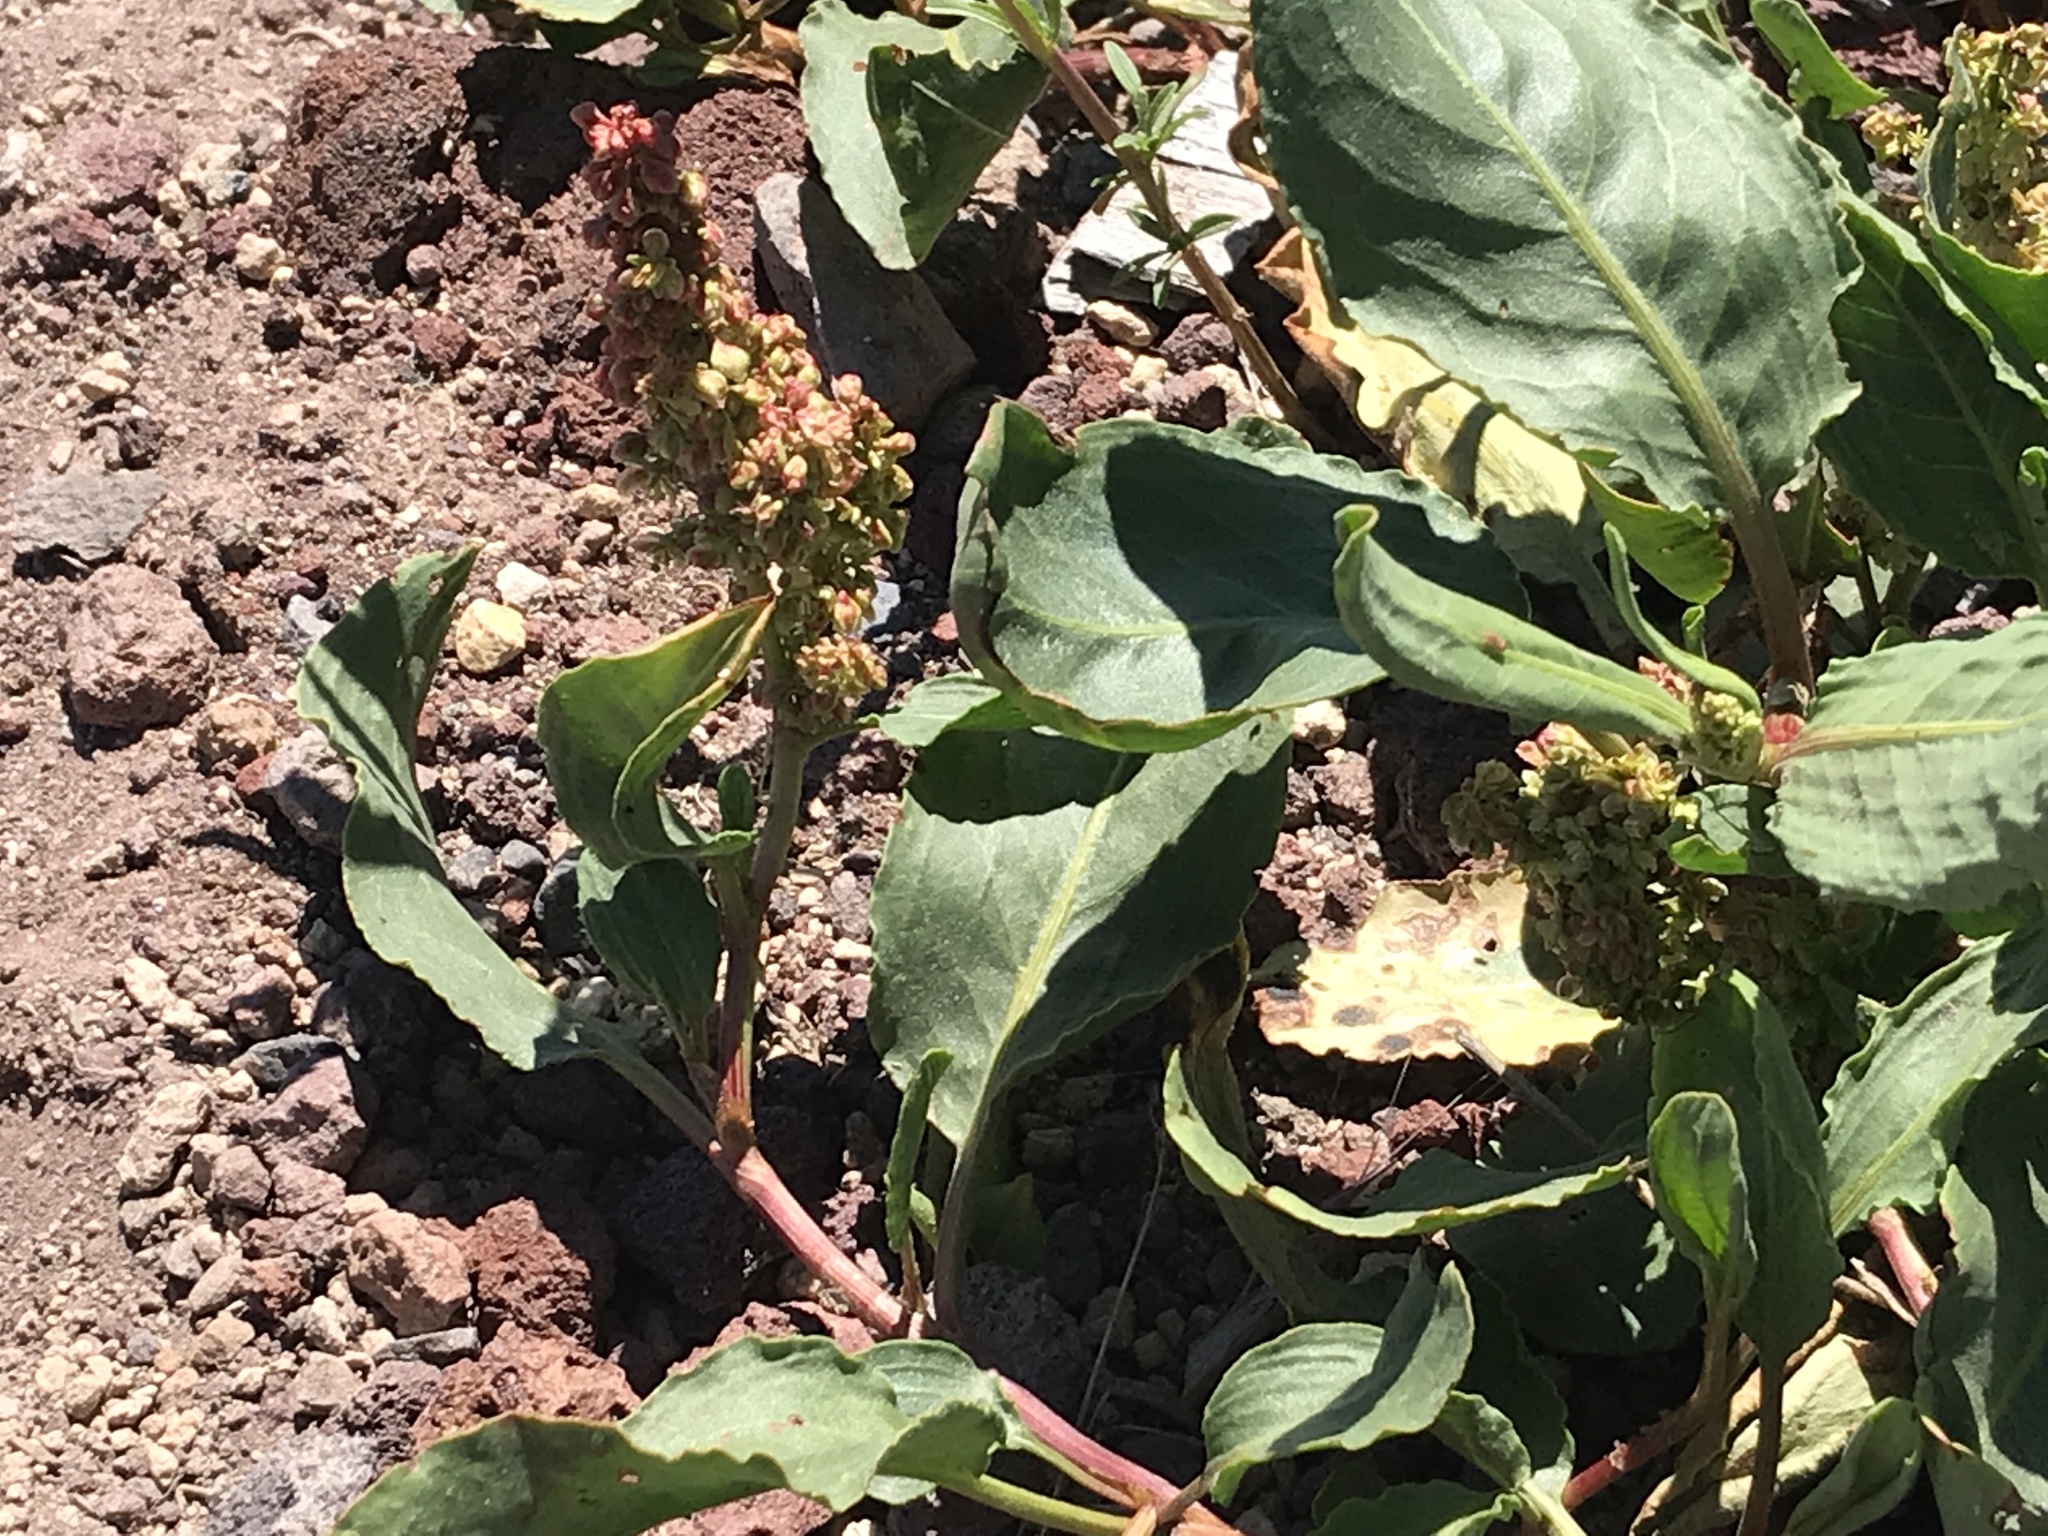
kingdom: Plantae
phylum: Tracheophyta
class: Magnoliopsida
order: Caryophyllales
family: Polygonaceae
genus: Rumex
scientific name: Rumex venosus
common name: Winged dock
